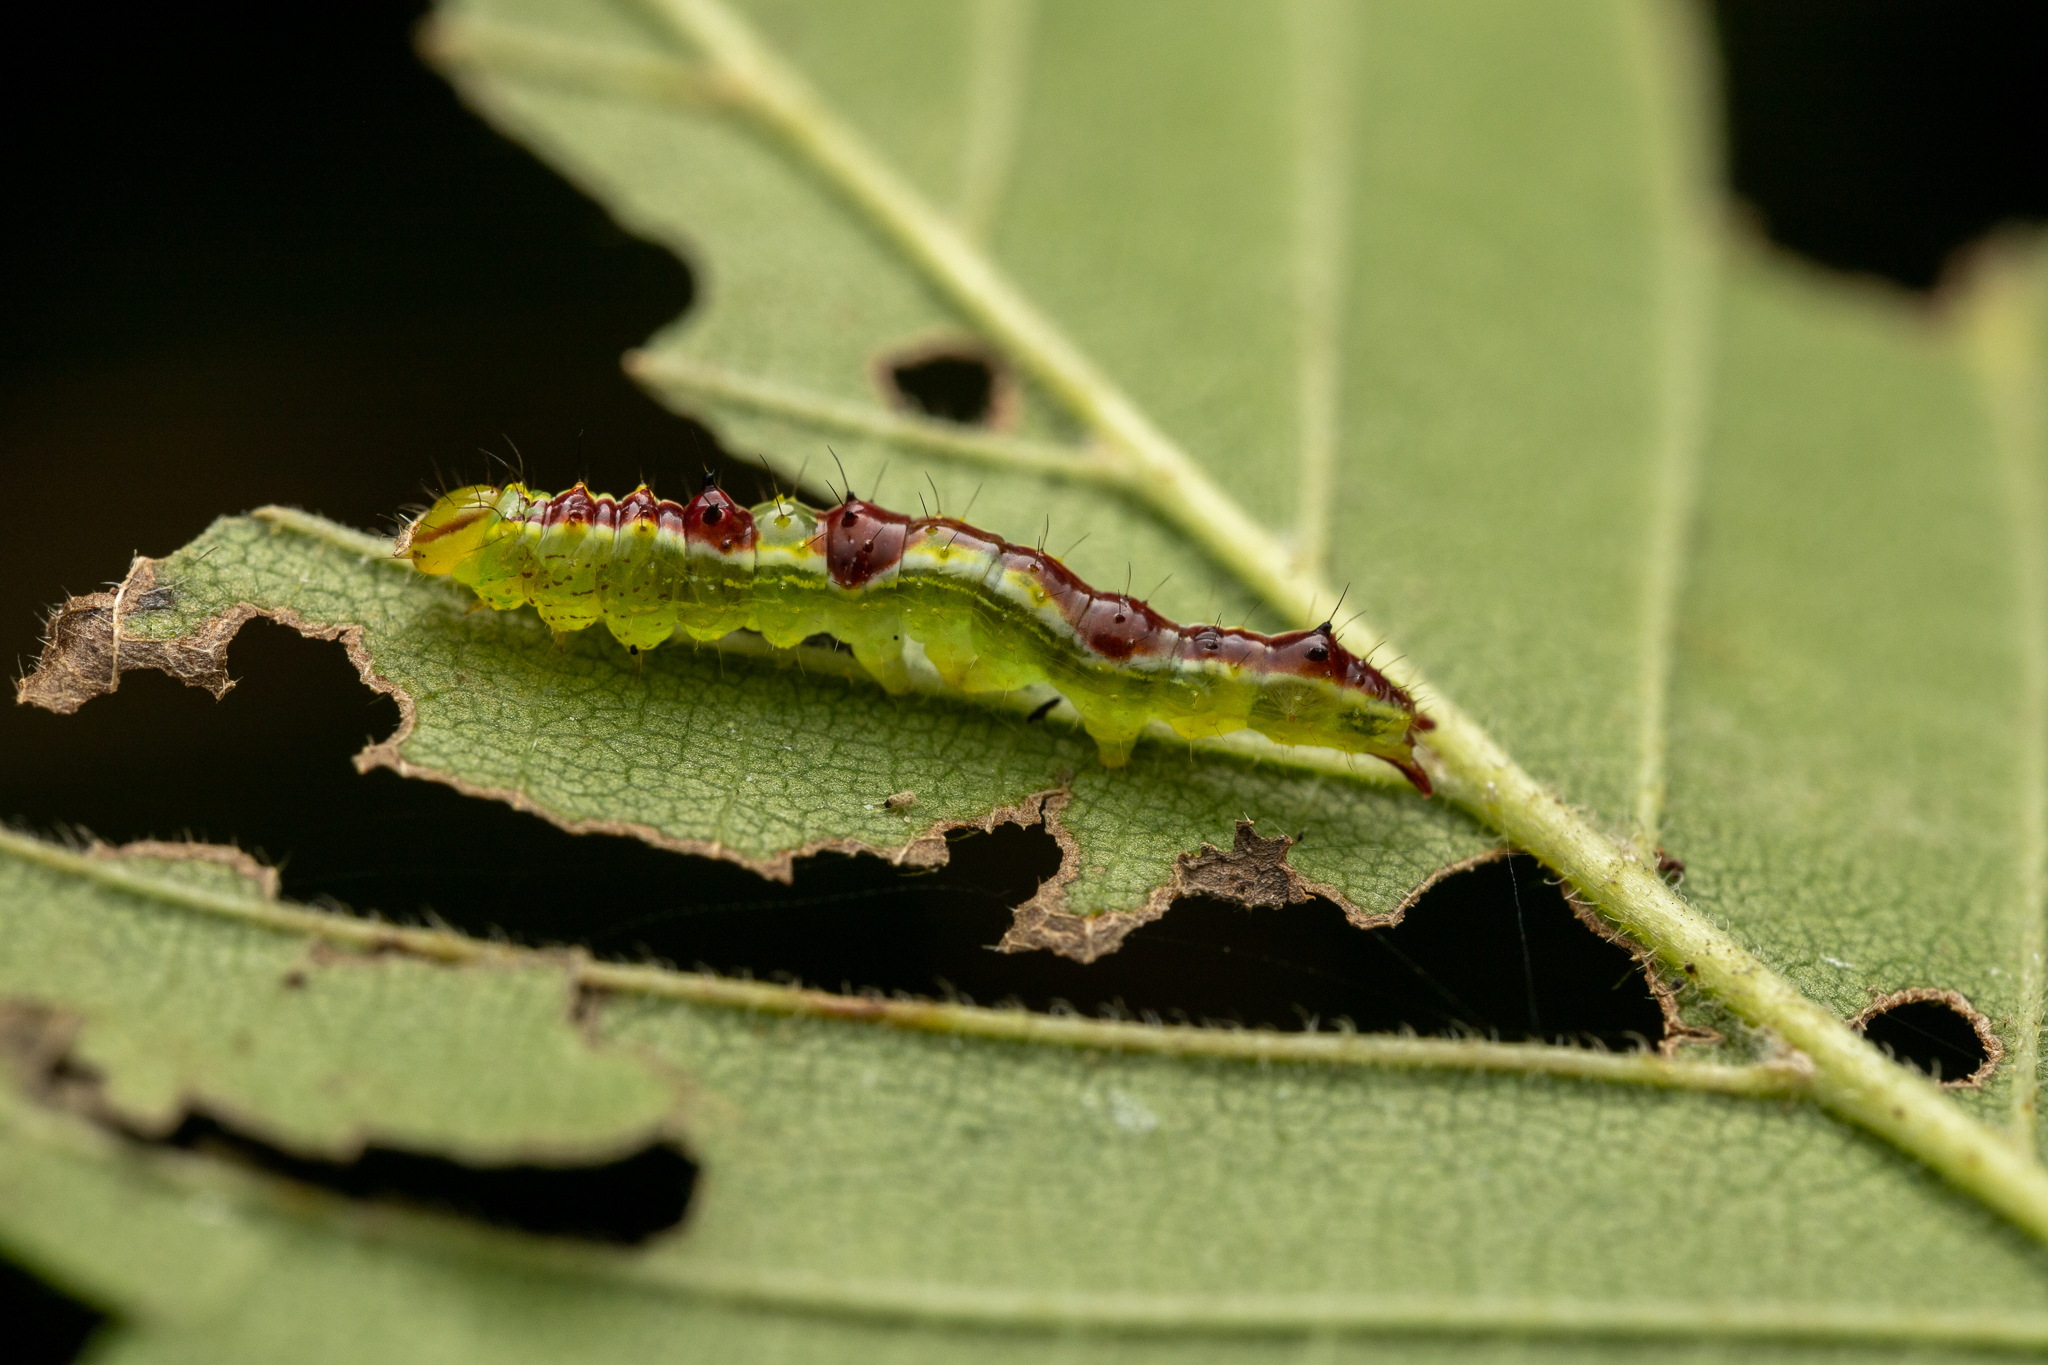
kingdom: Animalia
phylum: Arthropoda
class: Insecta
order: Lepidoptera
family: Notodontidae
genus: Lochmaeus
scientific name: Lochmaeus bilineata
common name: Double-lined prominent
